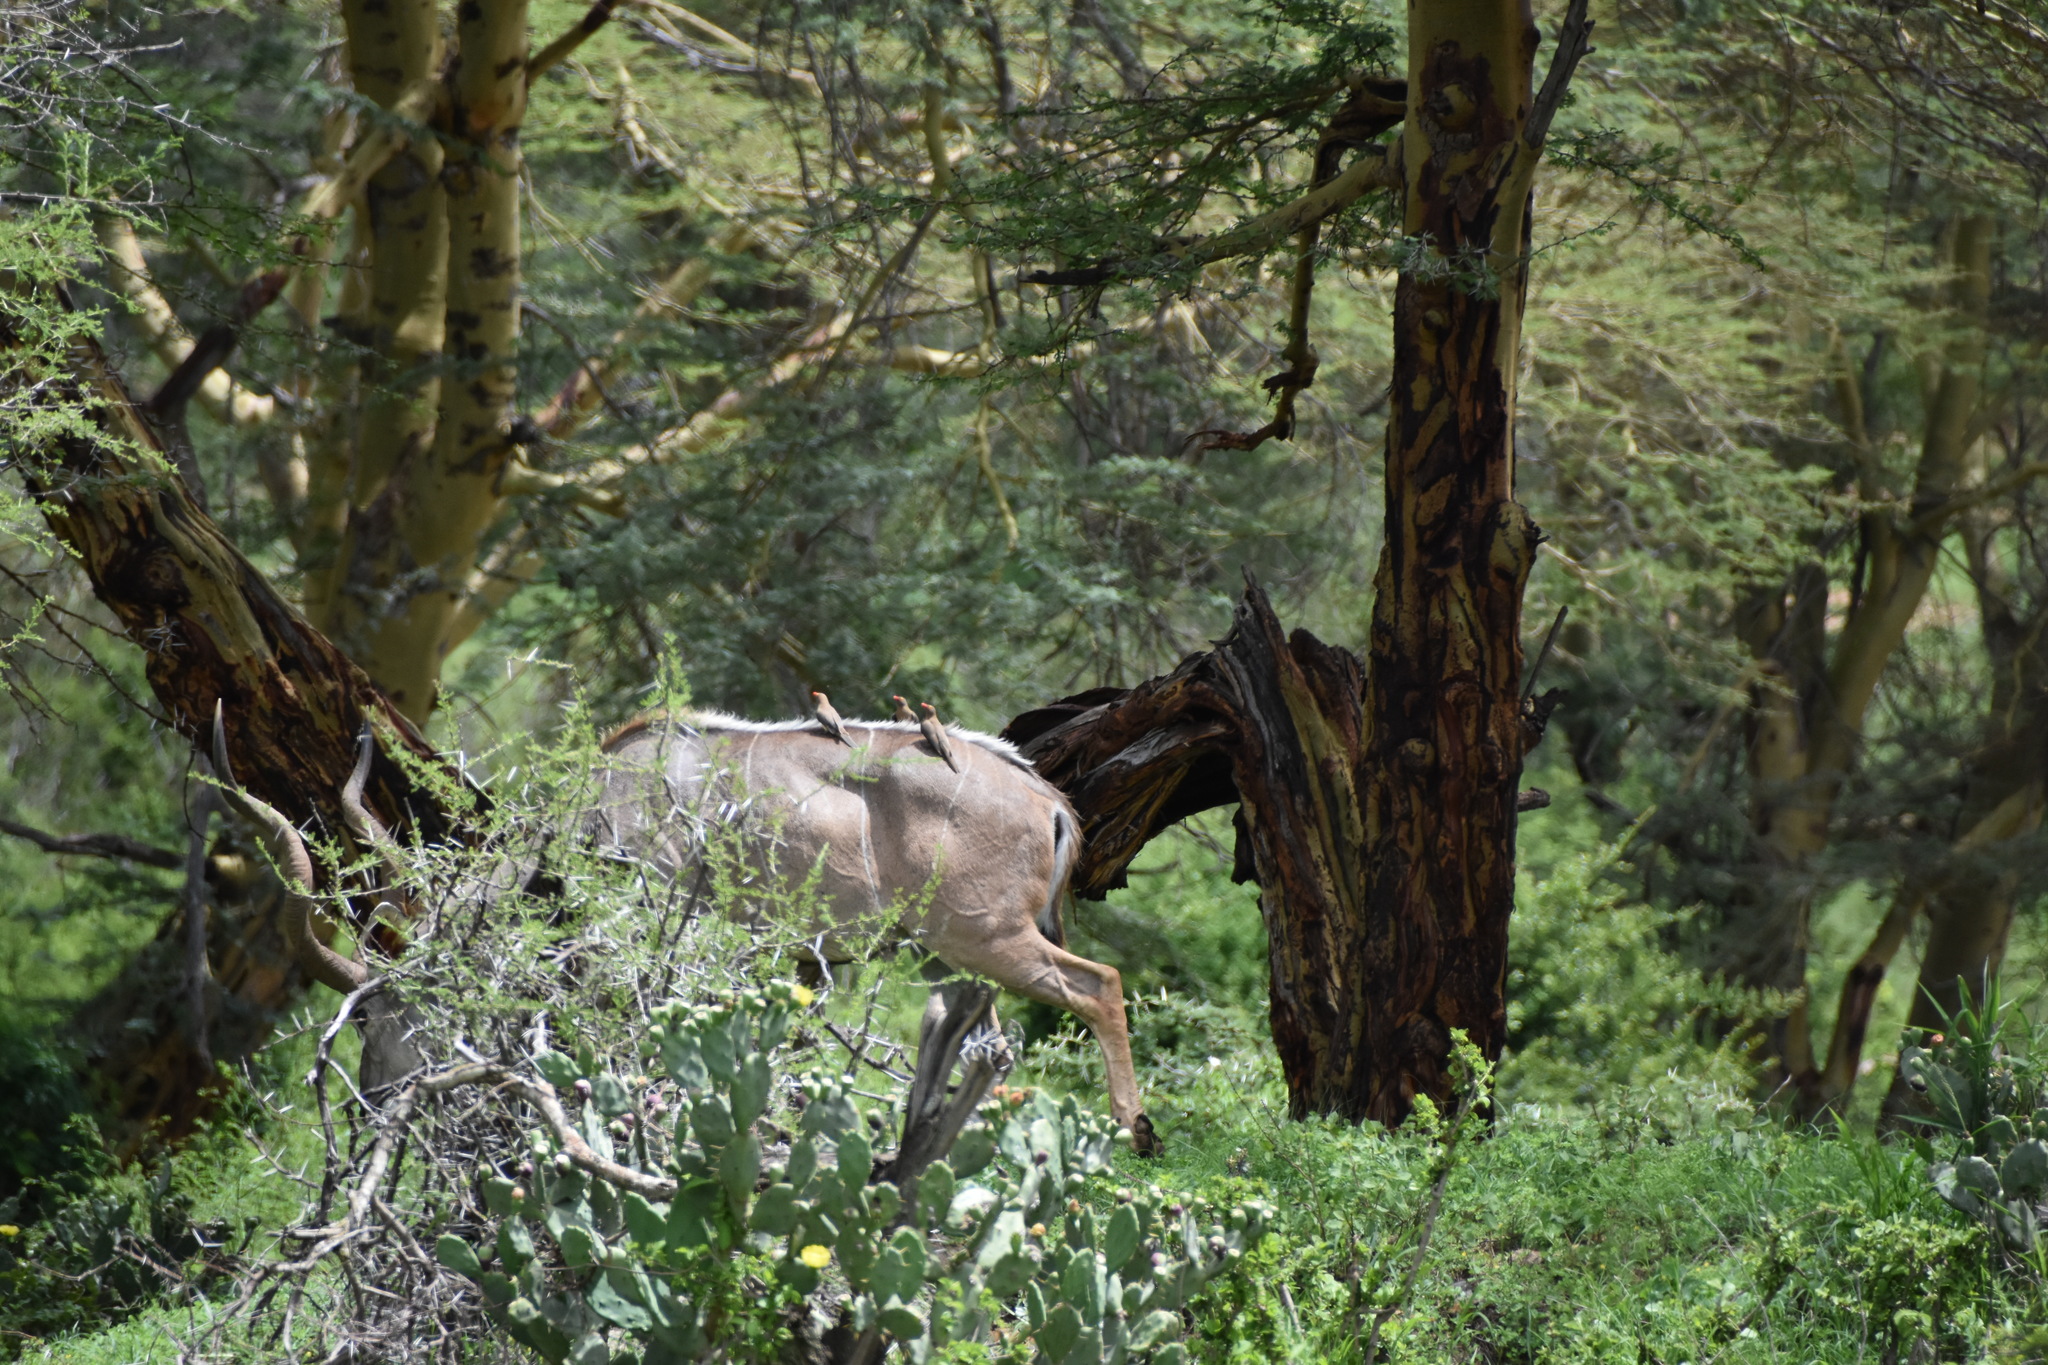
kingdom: Animalia
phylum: Chordata
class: Aves
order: Passeriformes
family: Buphagidae
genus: Buphagus
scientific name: Buphagus erythrorhynchus
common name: Red-billed oxpecker
